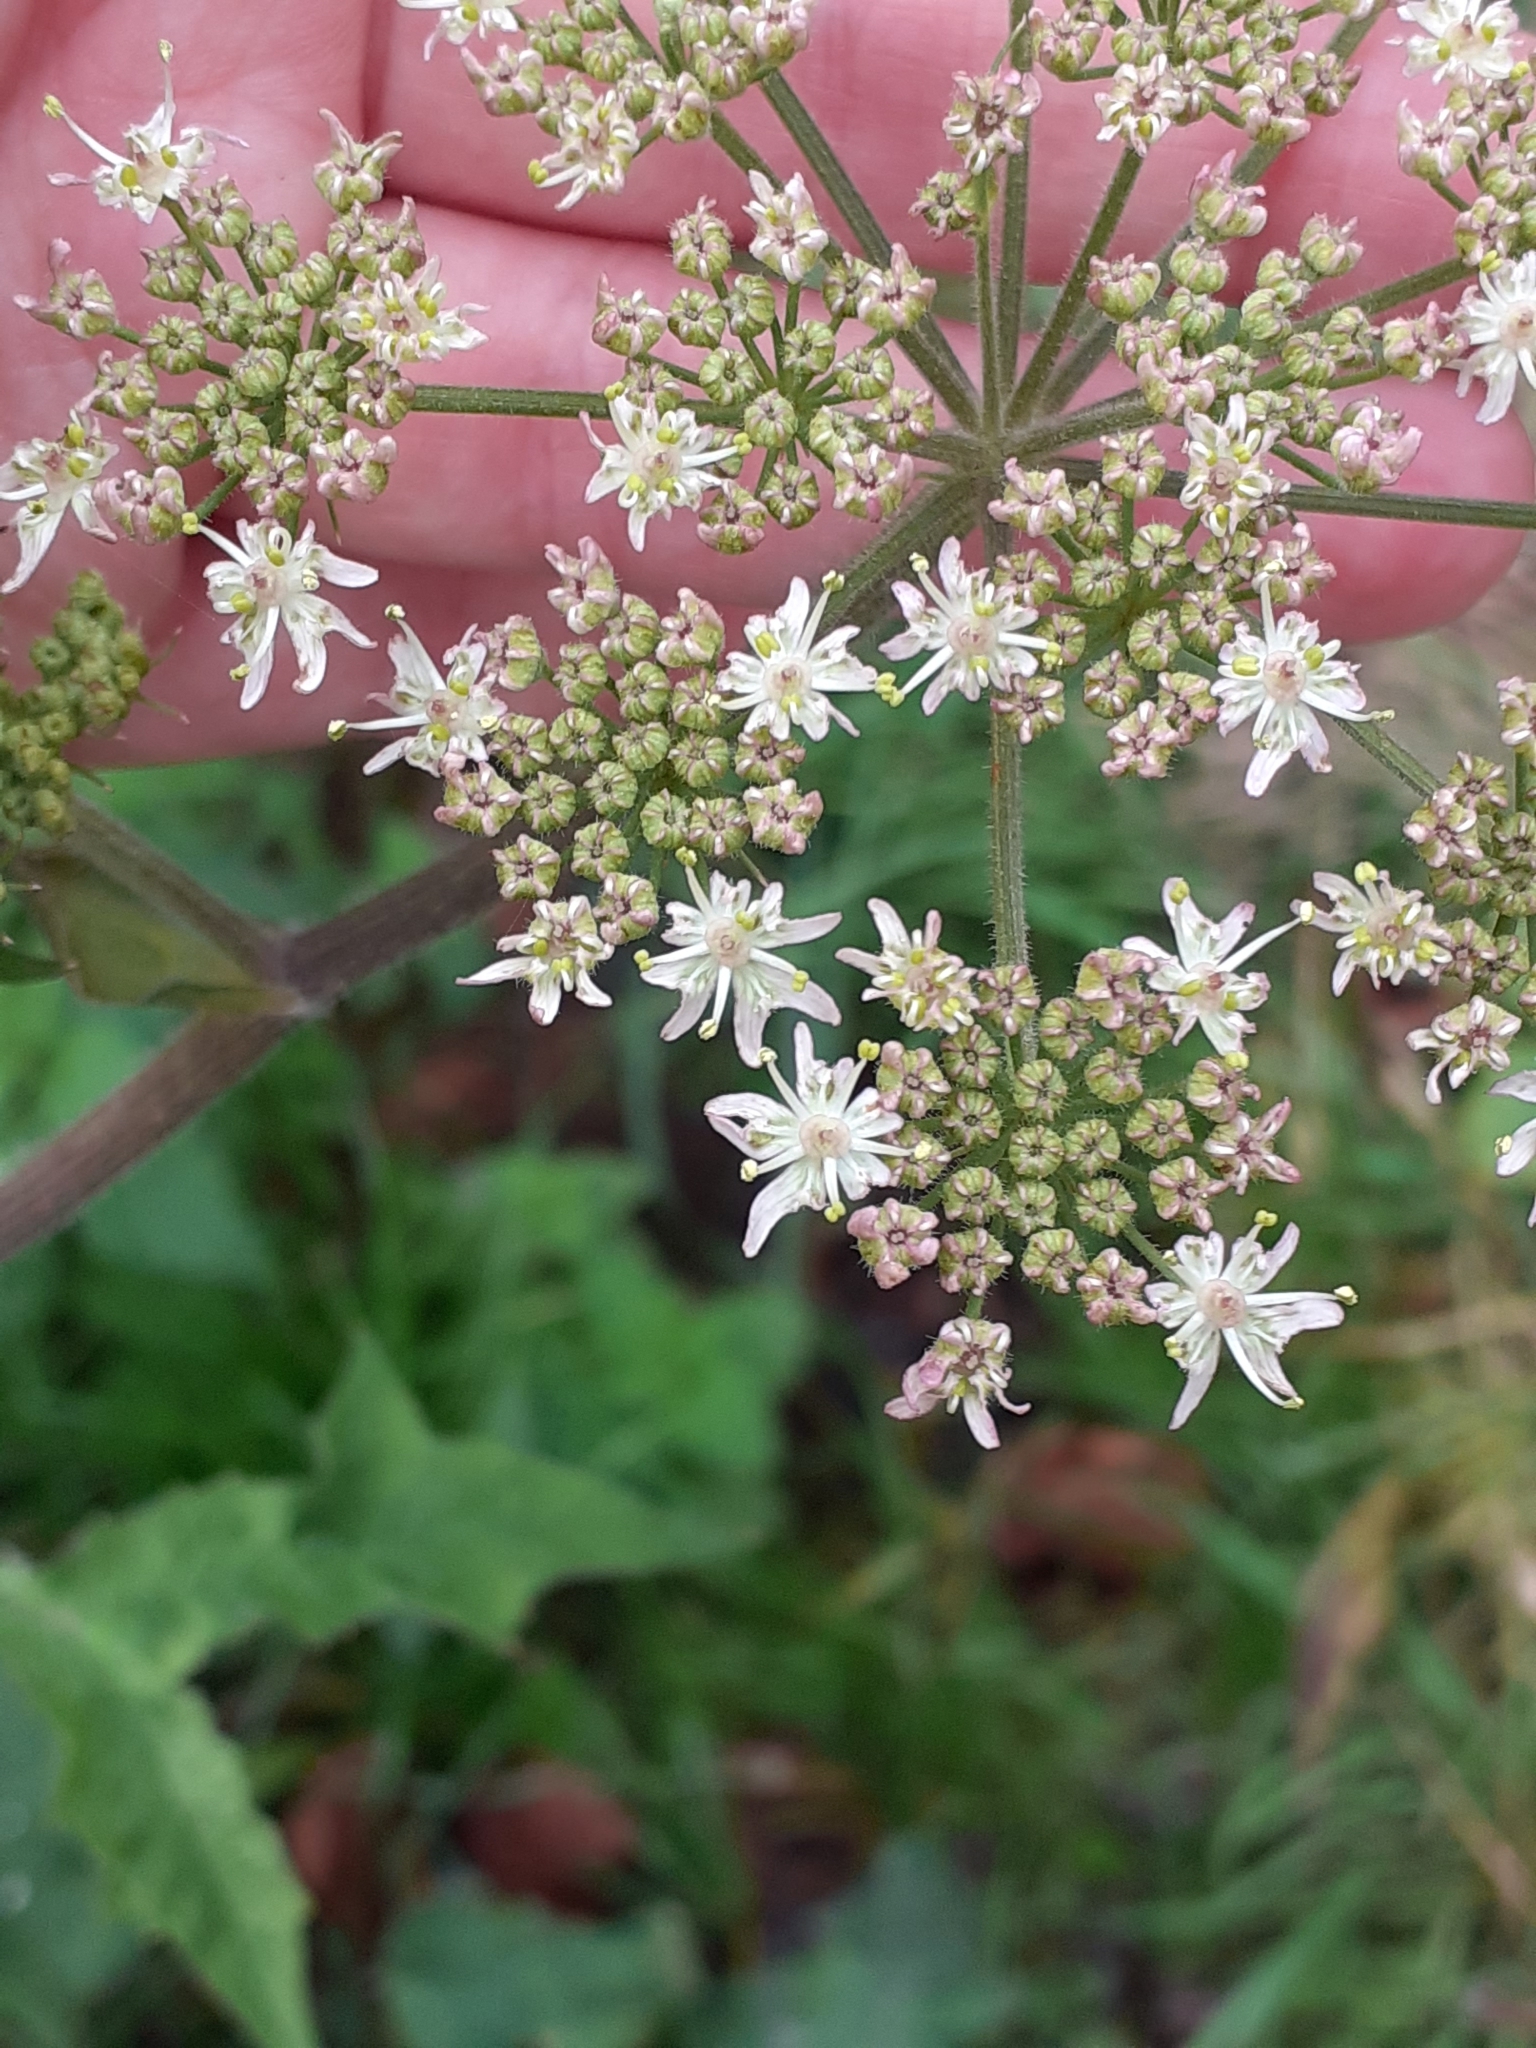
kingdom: Plantae
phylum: Tracheophyta
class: Magnoliopsida
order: Apiales
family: Apiaceae
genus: Heracleum
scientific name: Heracleum sphondylium
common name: Hogweed
